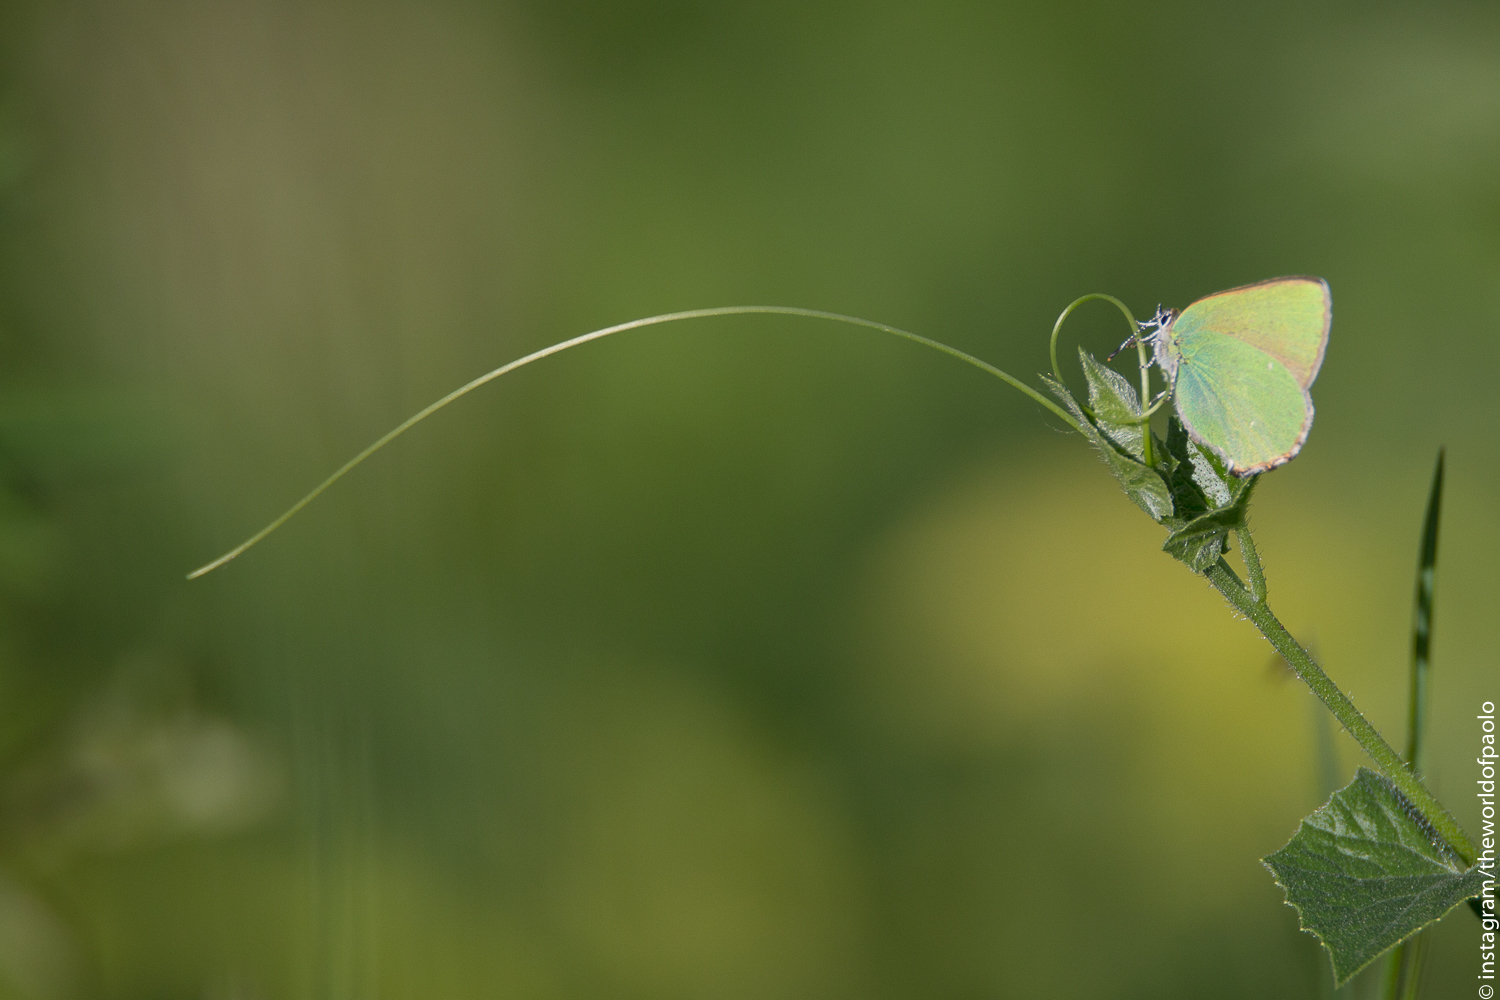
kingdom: Animalia
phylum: Arthropoda
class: Insecta
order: Lepidoptera
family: Lycaenidae
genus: Callophrys
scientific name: Callophrys rubi
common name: Green hairstreak
